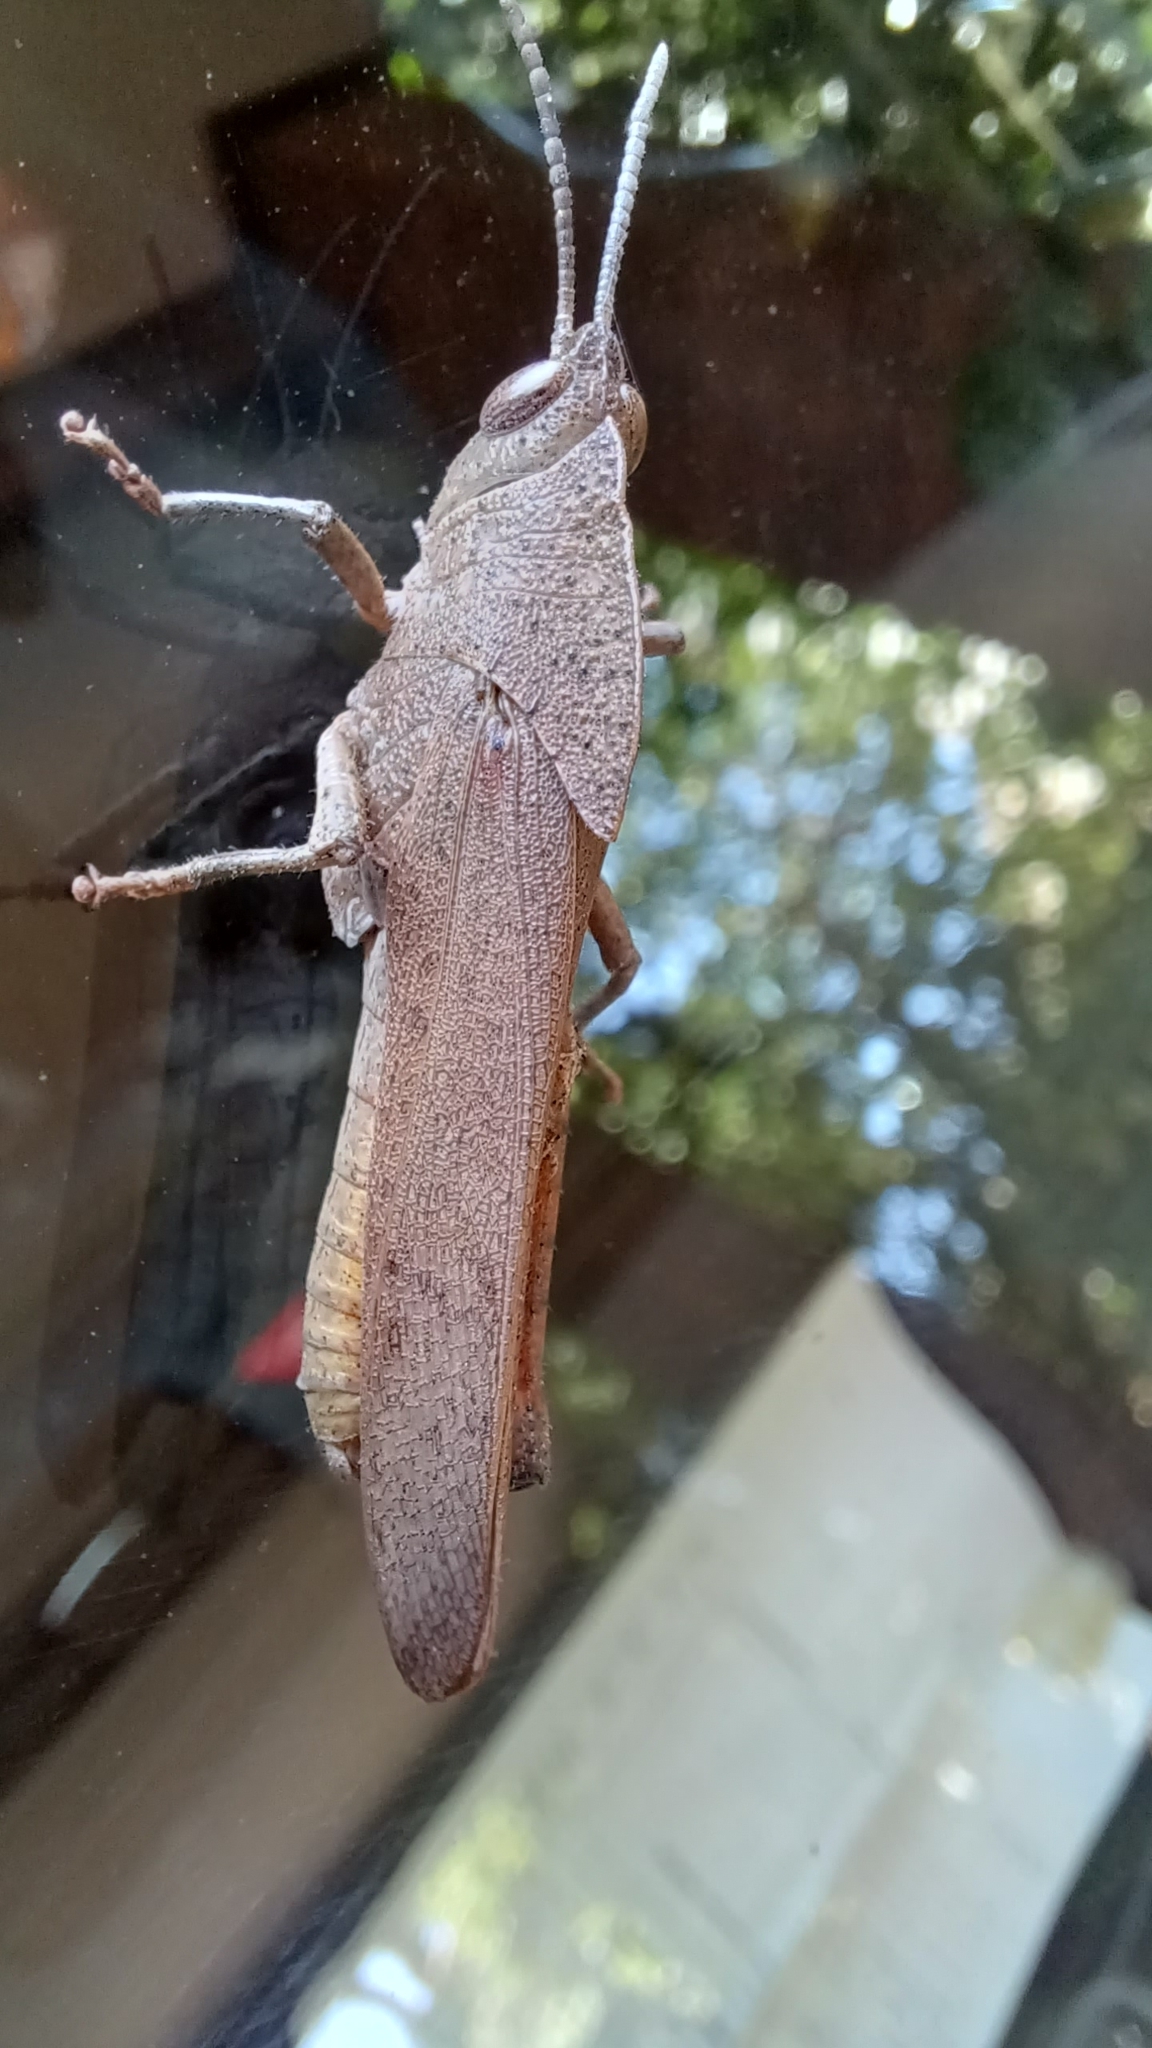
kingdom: Animalia
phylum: Arthropoda
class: Insecta
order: Orthoptera
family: Acrididae
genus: Goniaea
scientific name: Goniaea australasiae
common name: Gumleaf grasshopper
